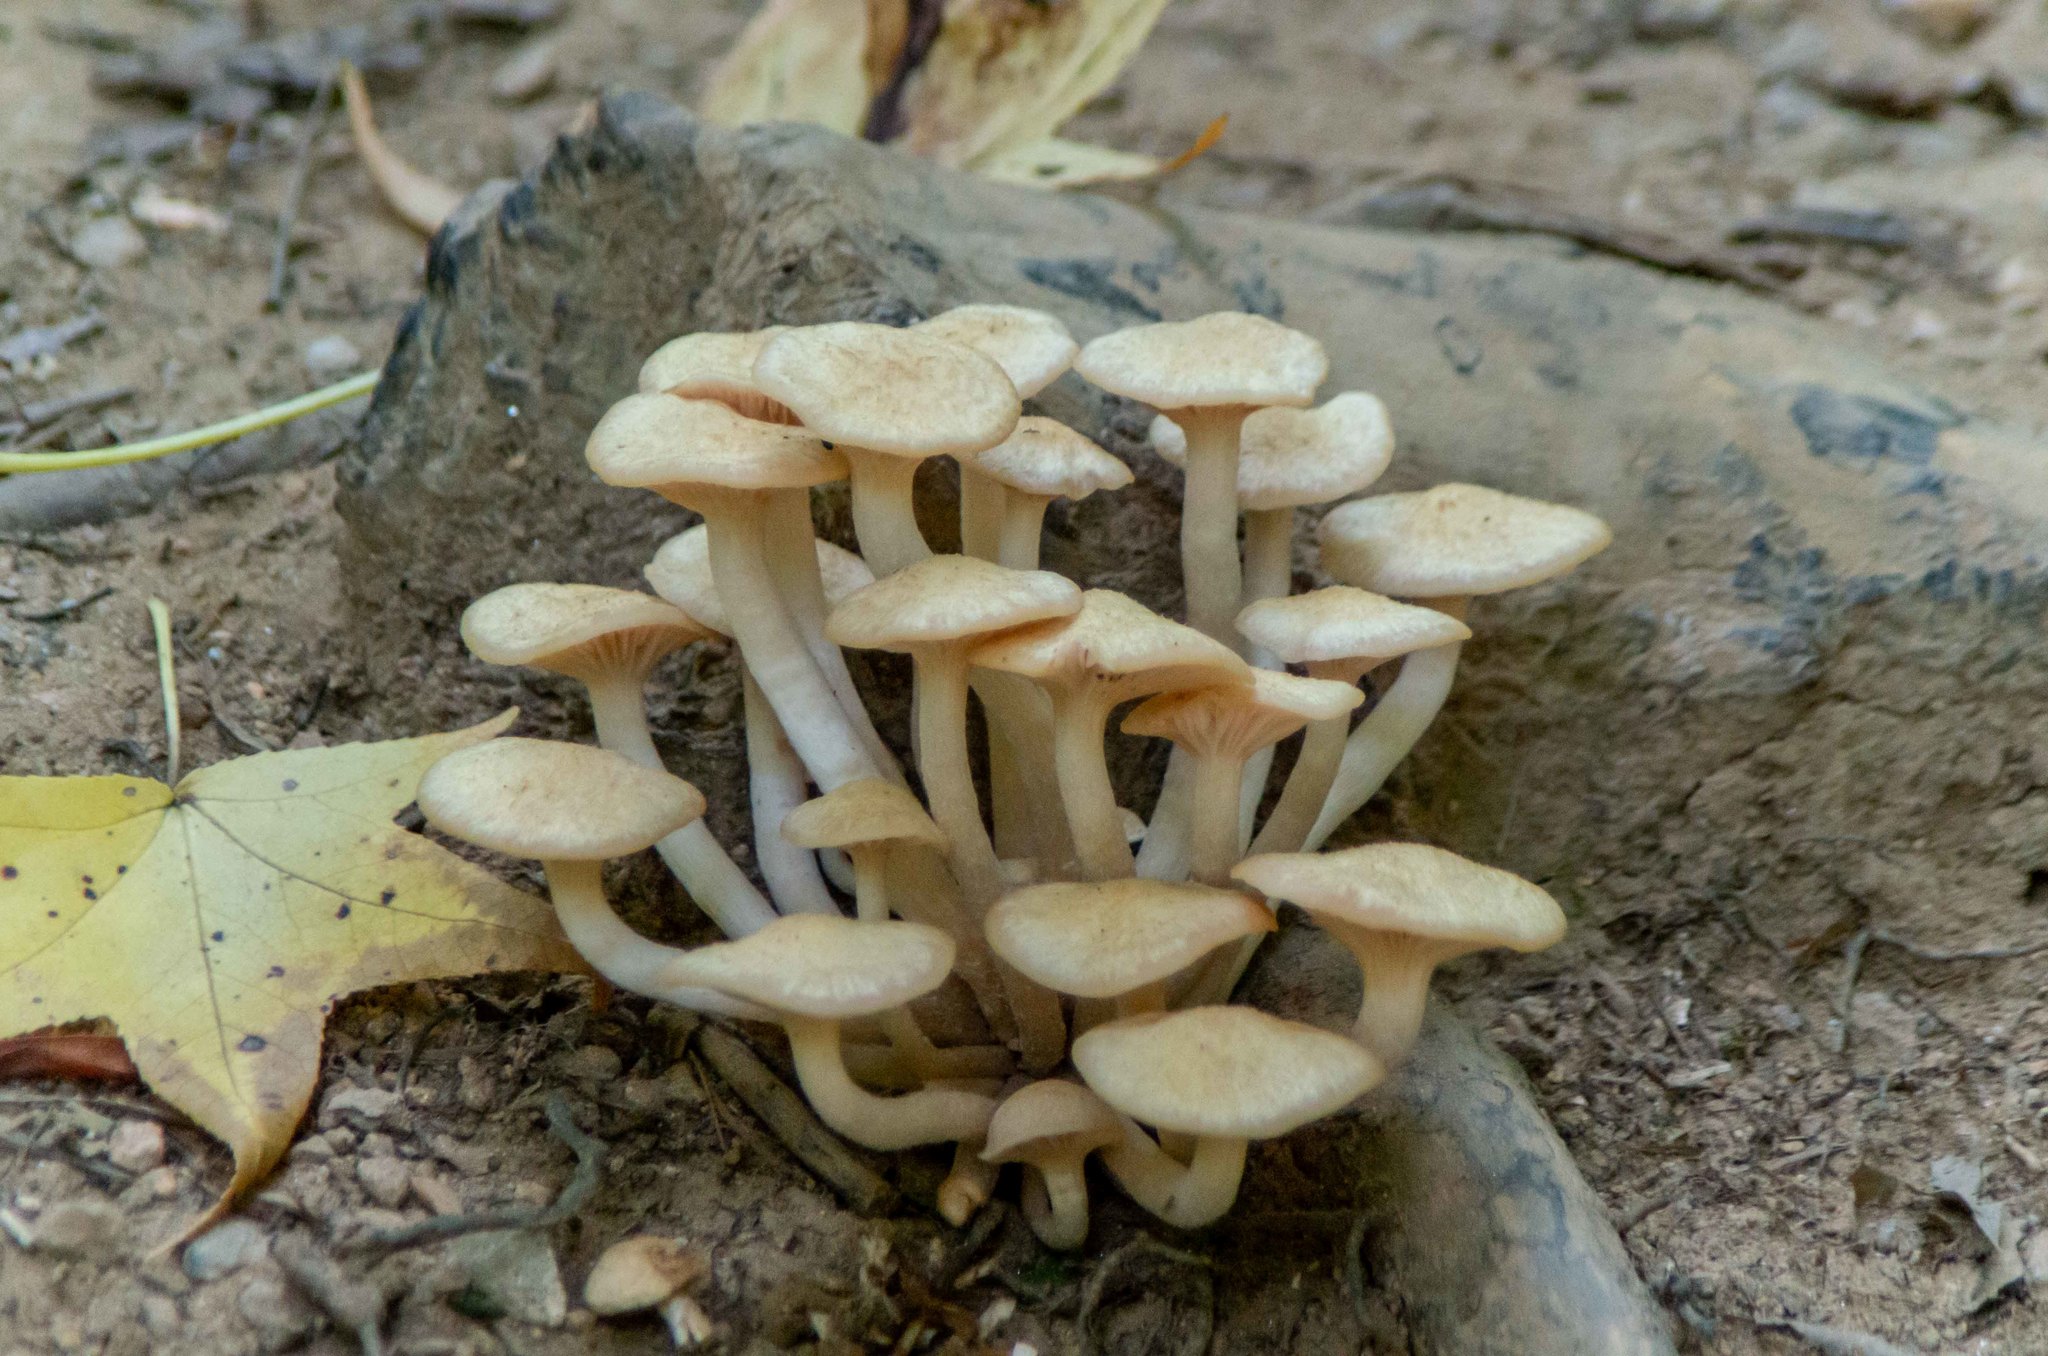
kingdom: Fungi
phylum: Basidiomycota
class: Agaricomycetes
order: Agaricales
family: Physalacriaceae
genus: Desarmillaria
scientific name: Desarmillaria caespitosa
